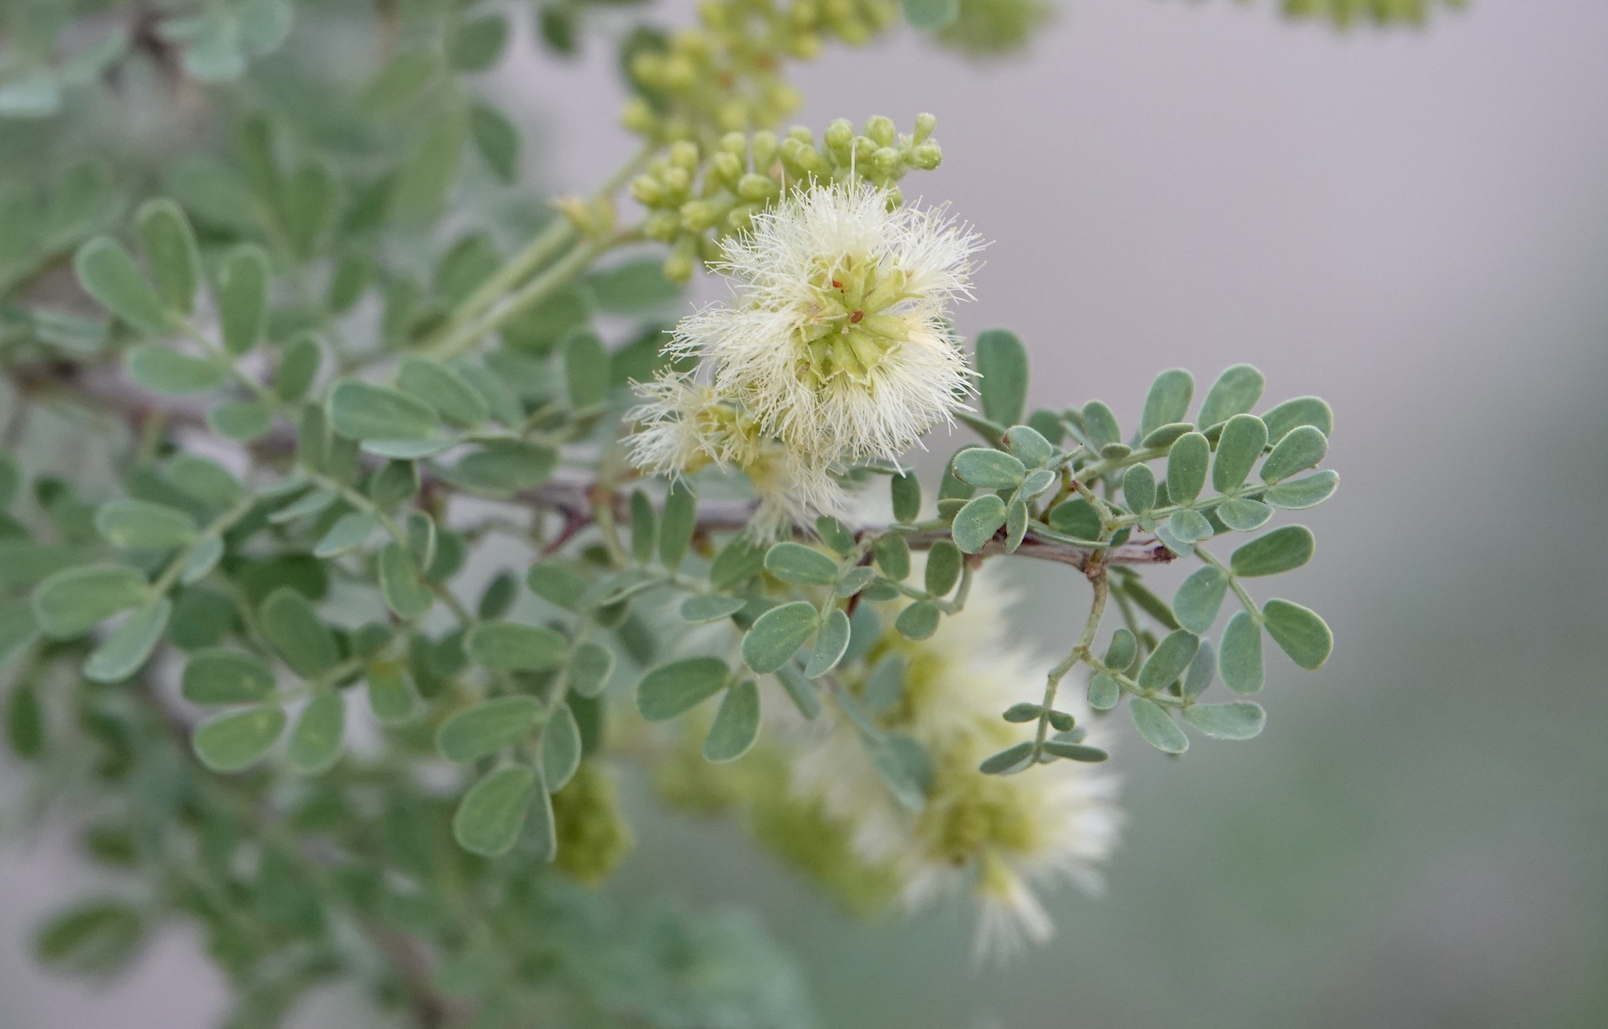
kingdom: Plantae
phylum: Tracheophyta
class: Magnoliopsida
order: Fabales
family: Fabaceae
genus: Senegalia
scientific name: Senegalia greggii
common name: Texas-mimosa
